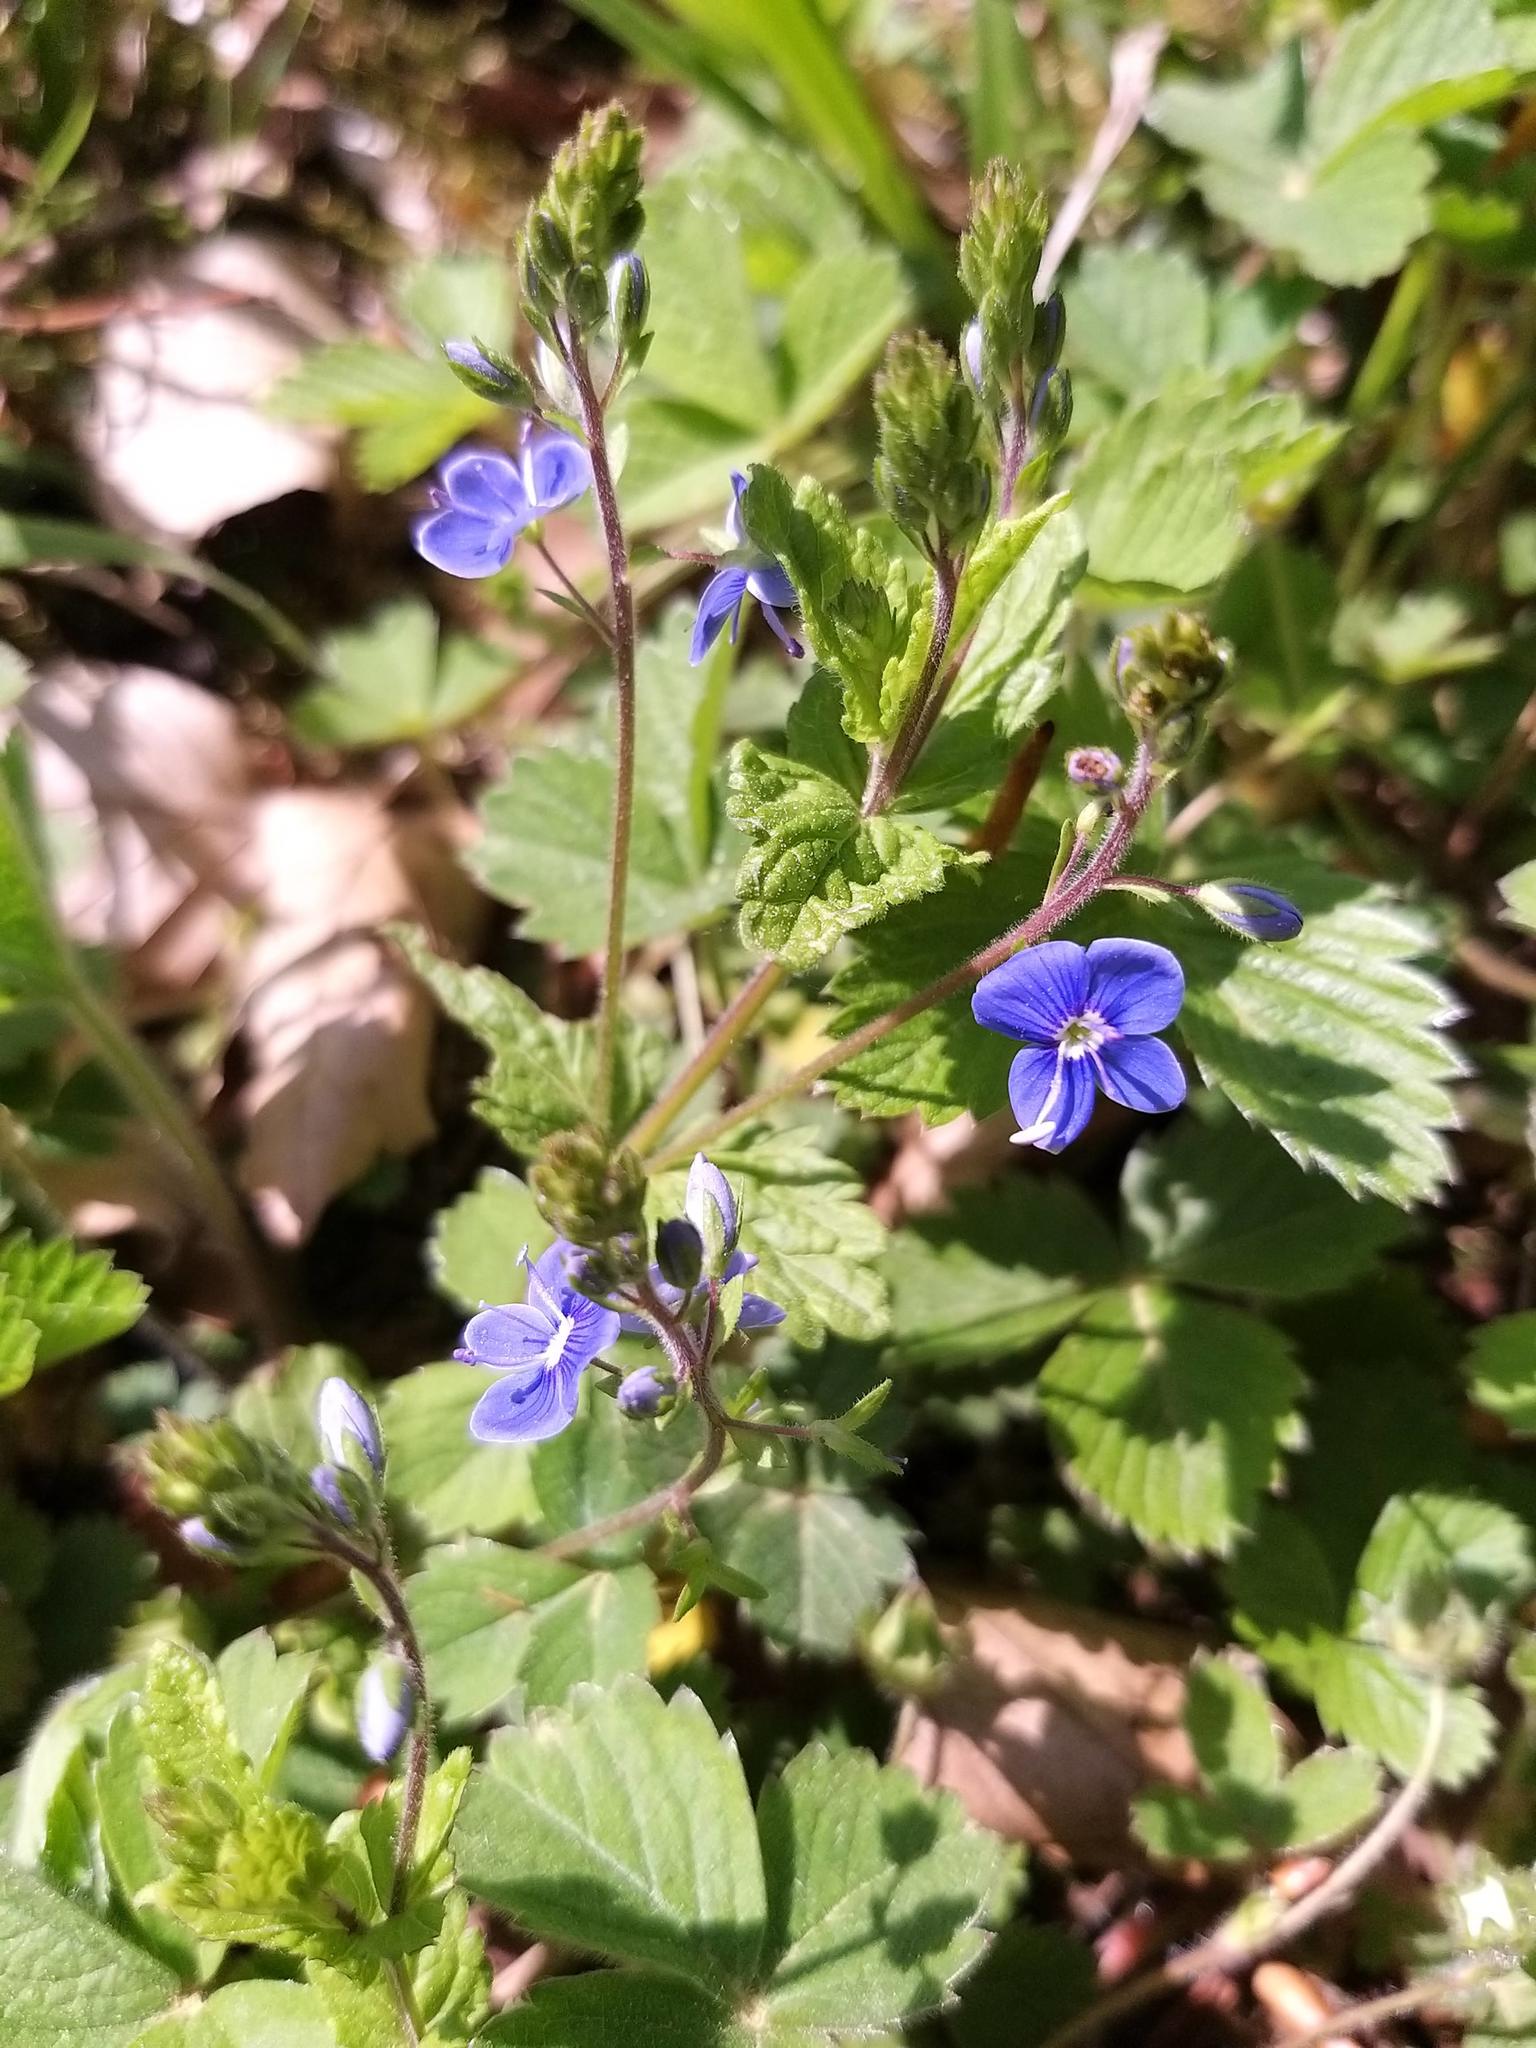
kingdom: Plantae
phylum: Tracheophyta
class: Magnoliopsida
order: Lamiales
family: Plantaginaceae
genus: Veronica
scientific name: Veronica chamaedrys
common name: Germander speedwell
